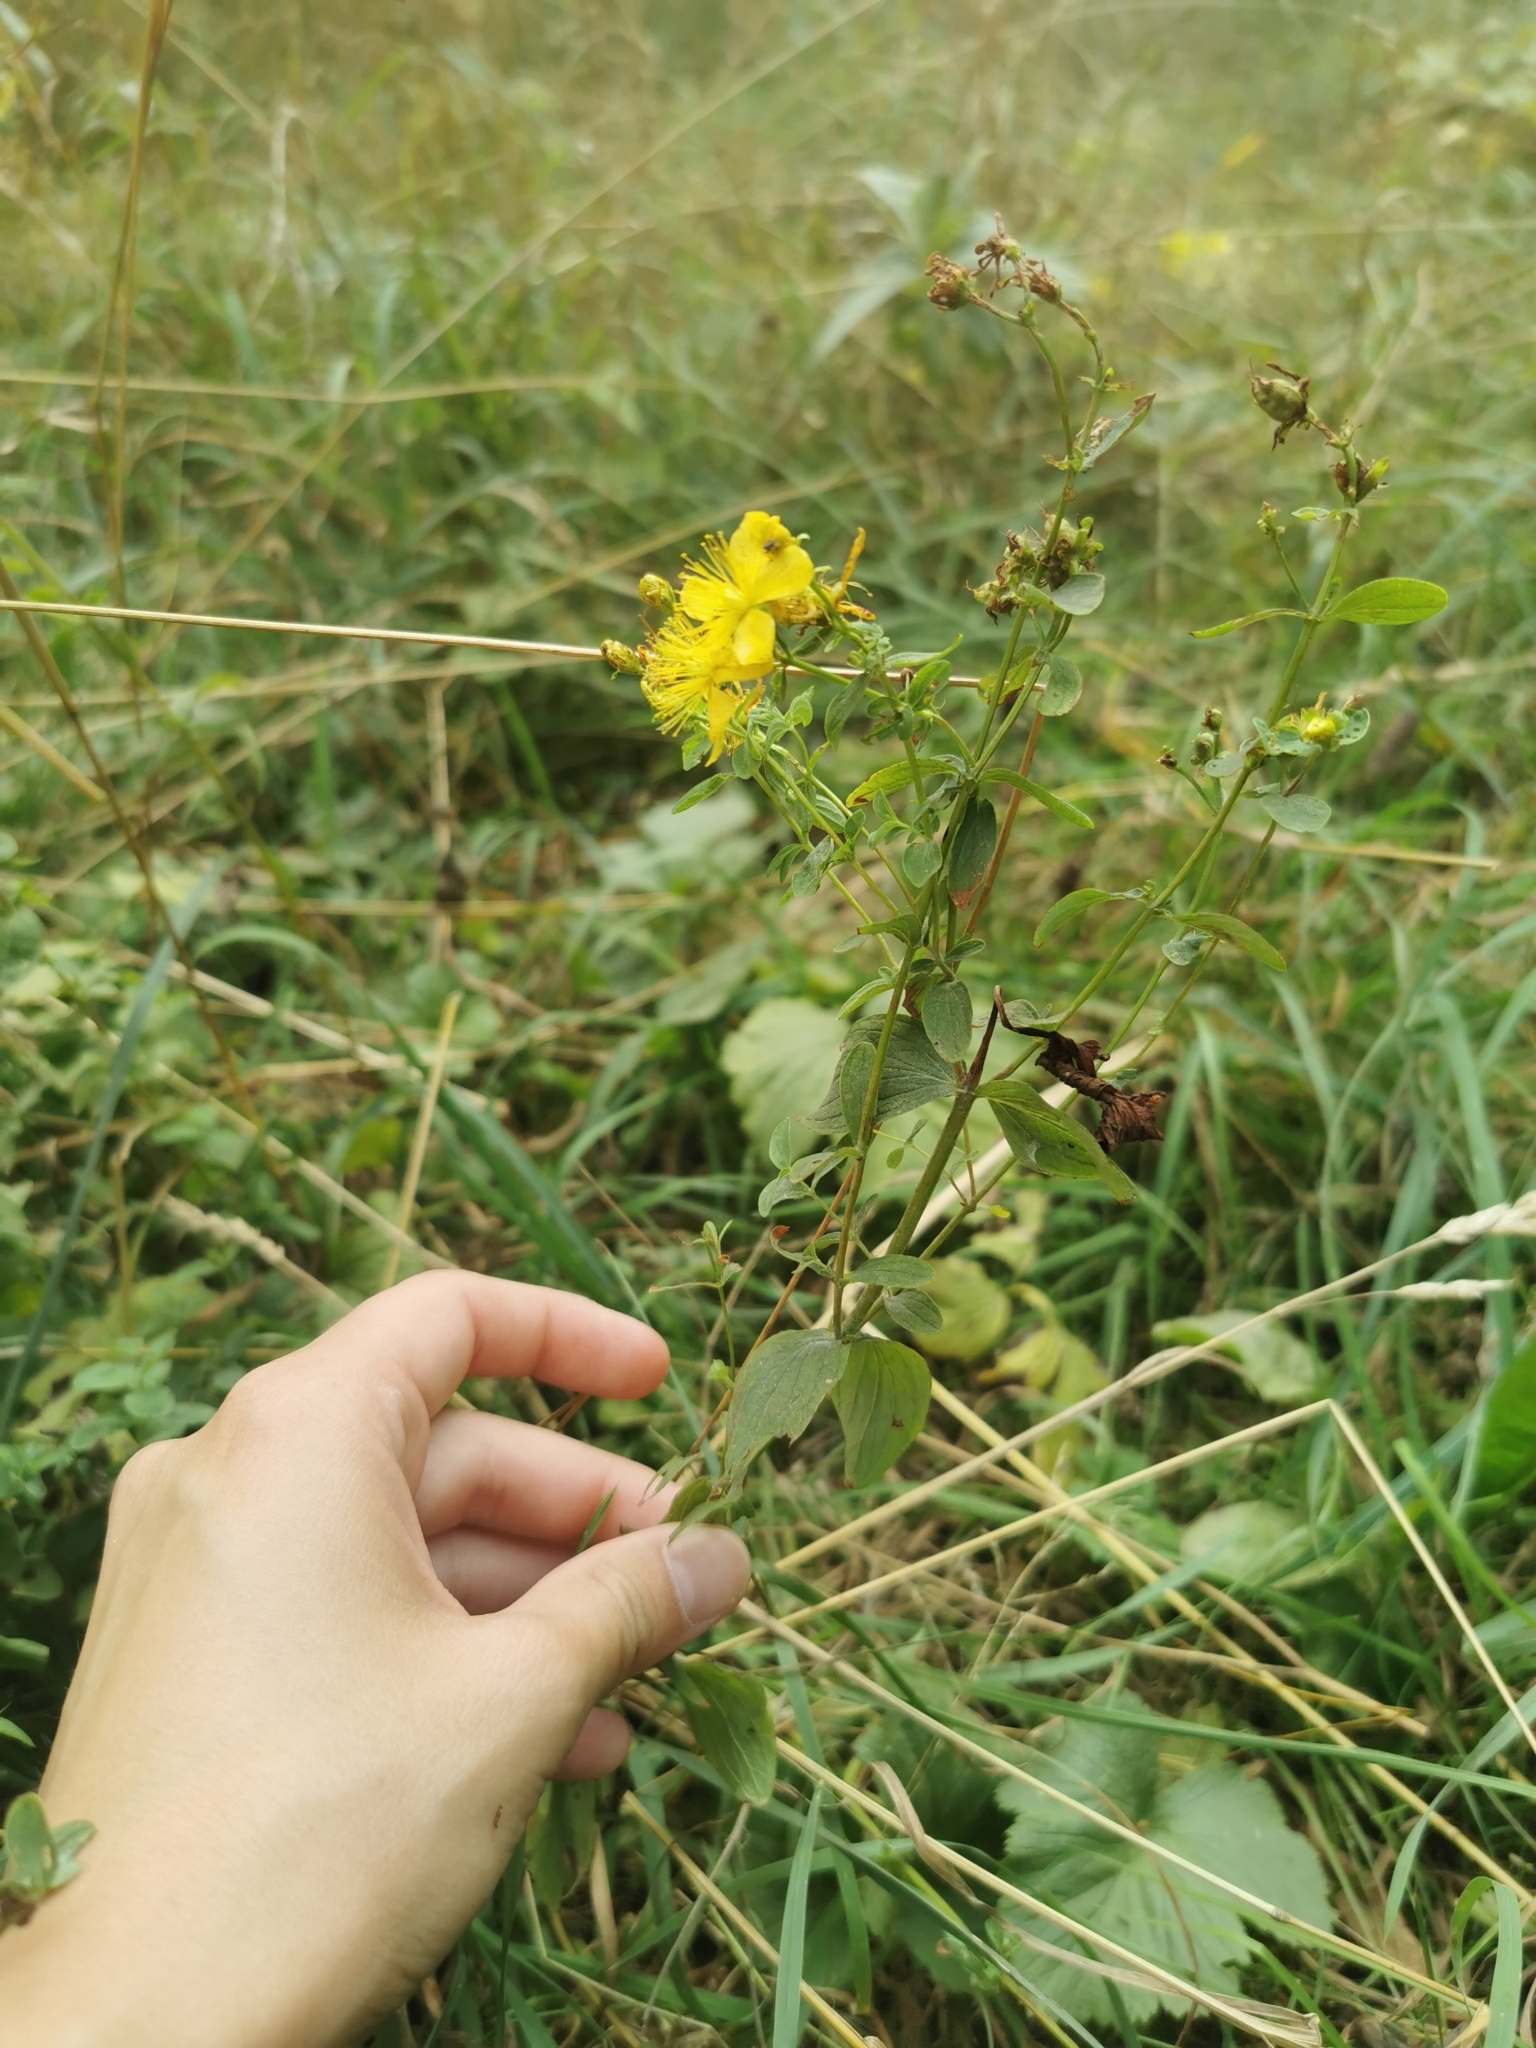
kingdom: Plantae
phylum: Tracheophyta
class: Magnoliopsida
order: Malpighiales
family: Hypericaceae
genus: Hypericum
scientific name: Hypericum maculatum
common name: Imperforate st. john's-wort
